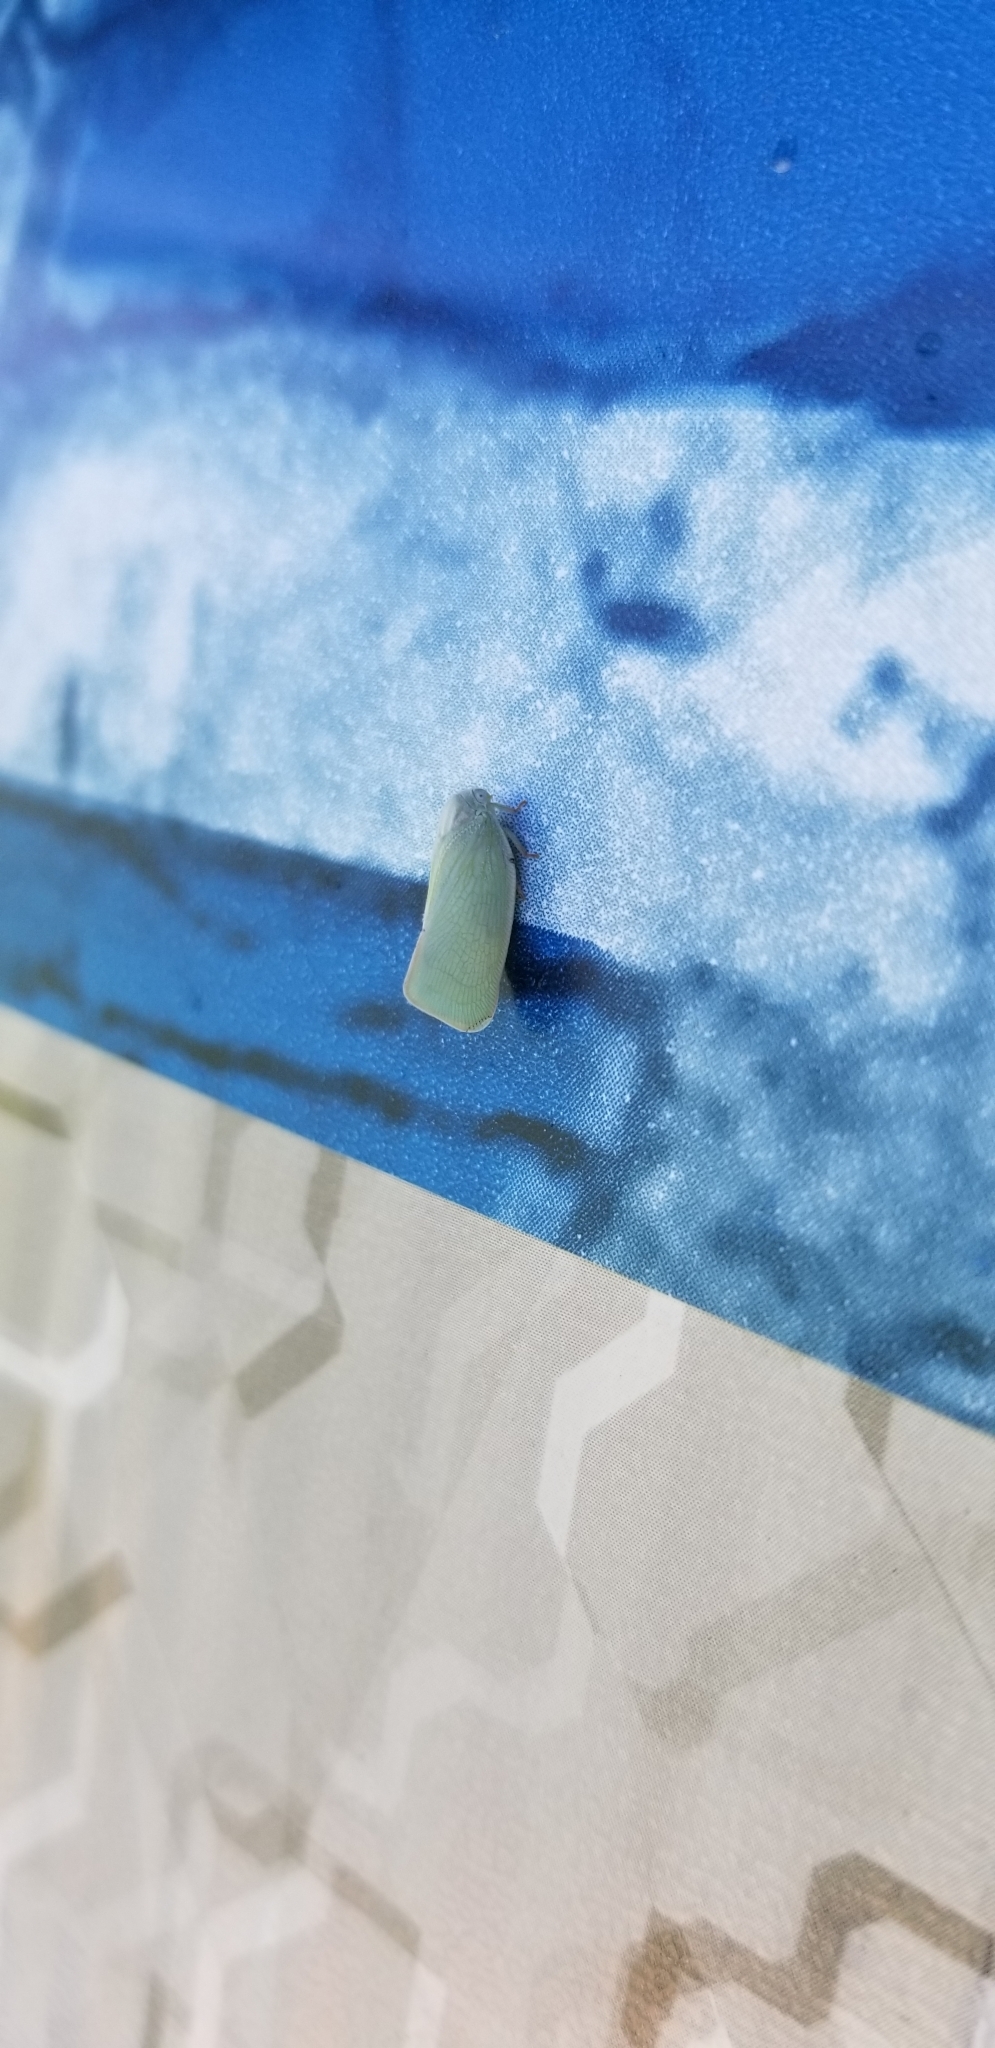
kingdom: Animalia
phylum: Arthropoda
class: Insecta
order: Hemiptera
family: Flatidae
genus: Flatormenis
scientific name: Flatormenis proxima
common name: Northern flatid planthopper
